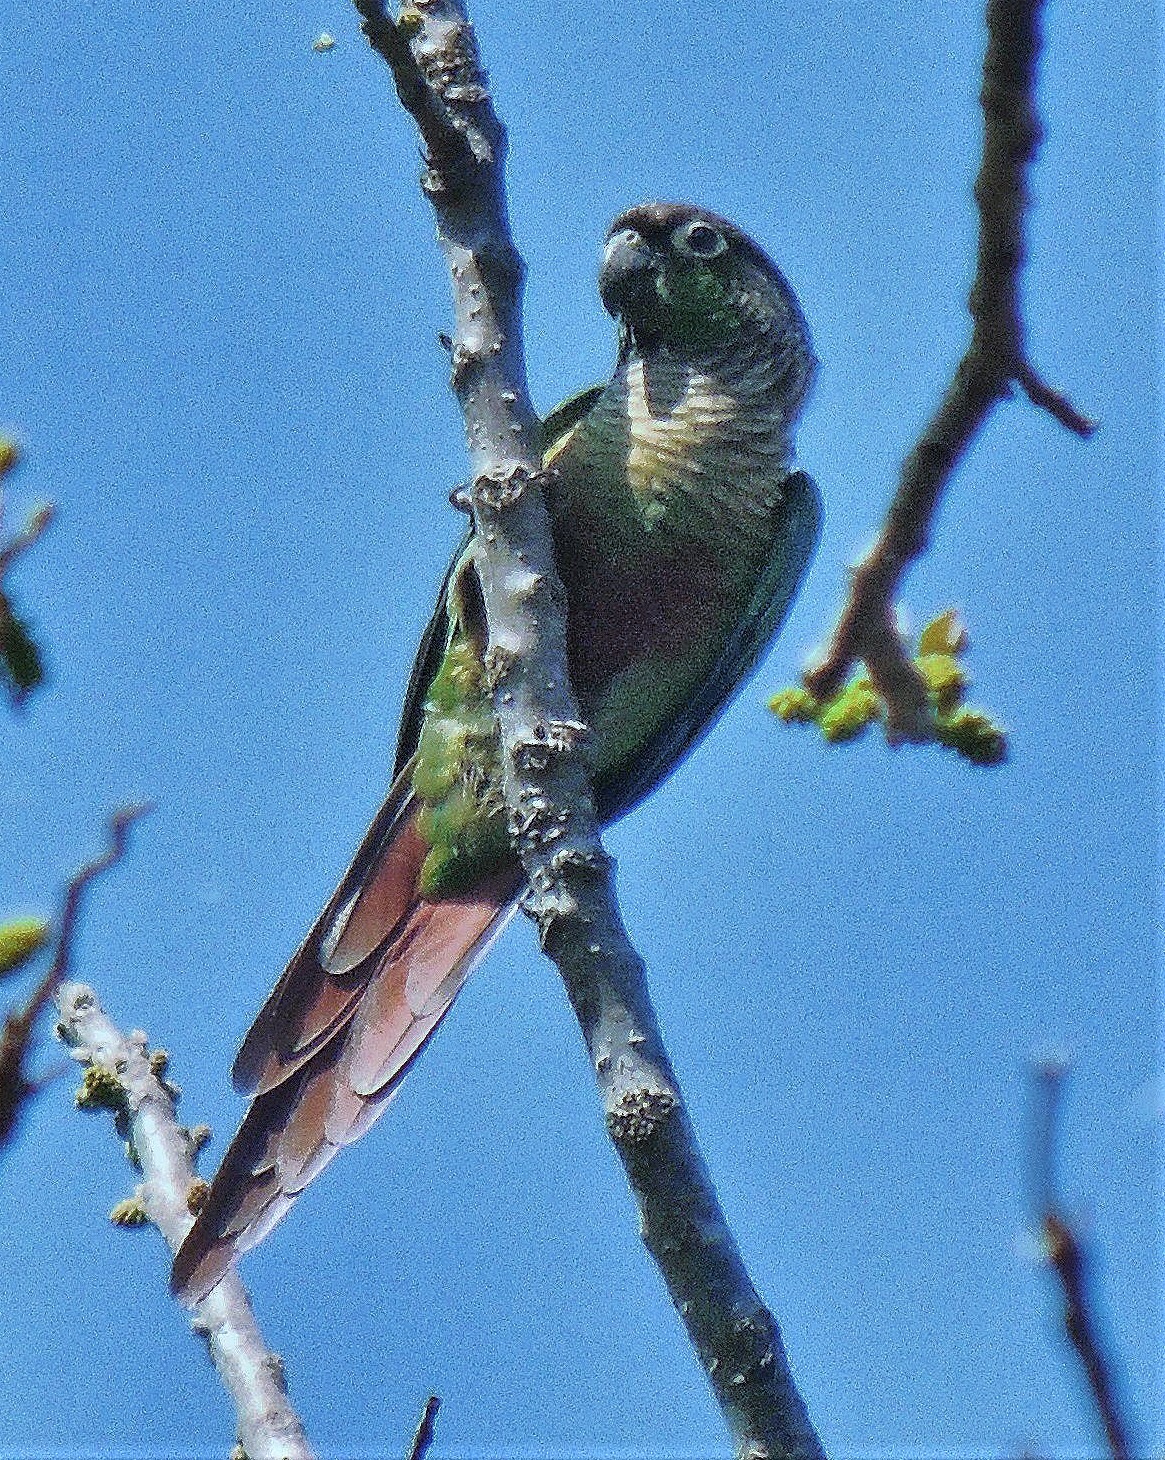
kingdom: Animalia
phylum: Chordata
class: Aves
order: Psittaciformes
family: Psittacidae
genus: Pyrrhura
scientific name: Pyrrhura molinae
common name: Green-cheeked parakeet
